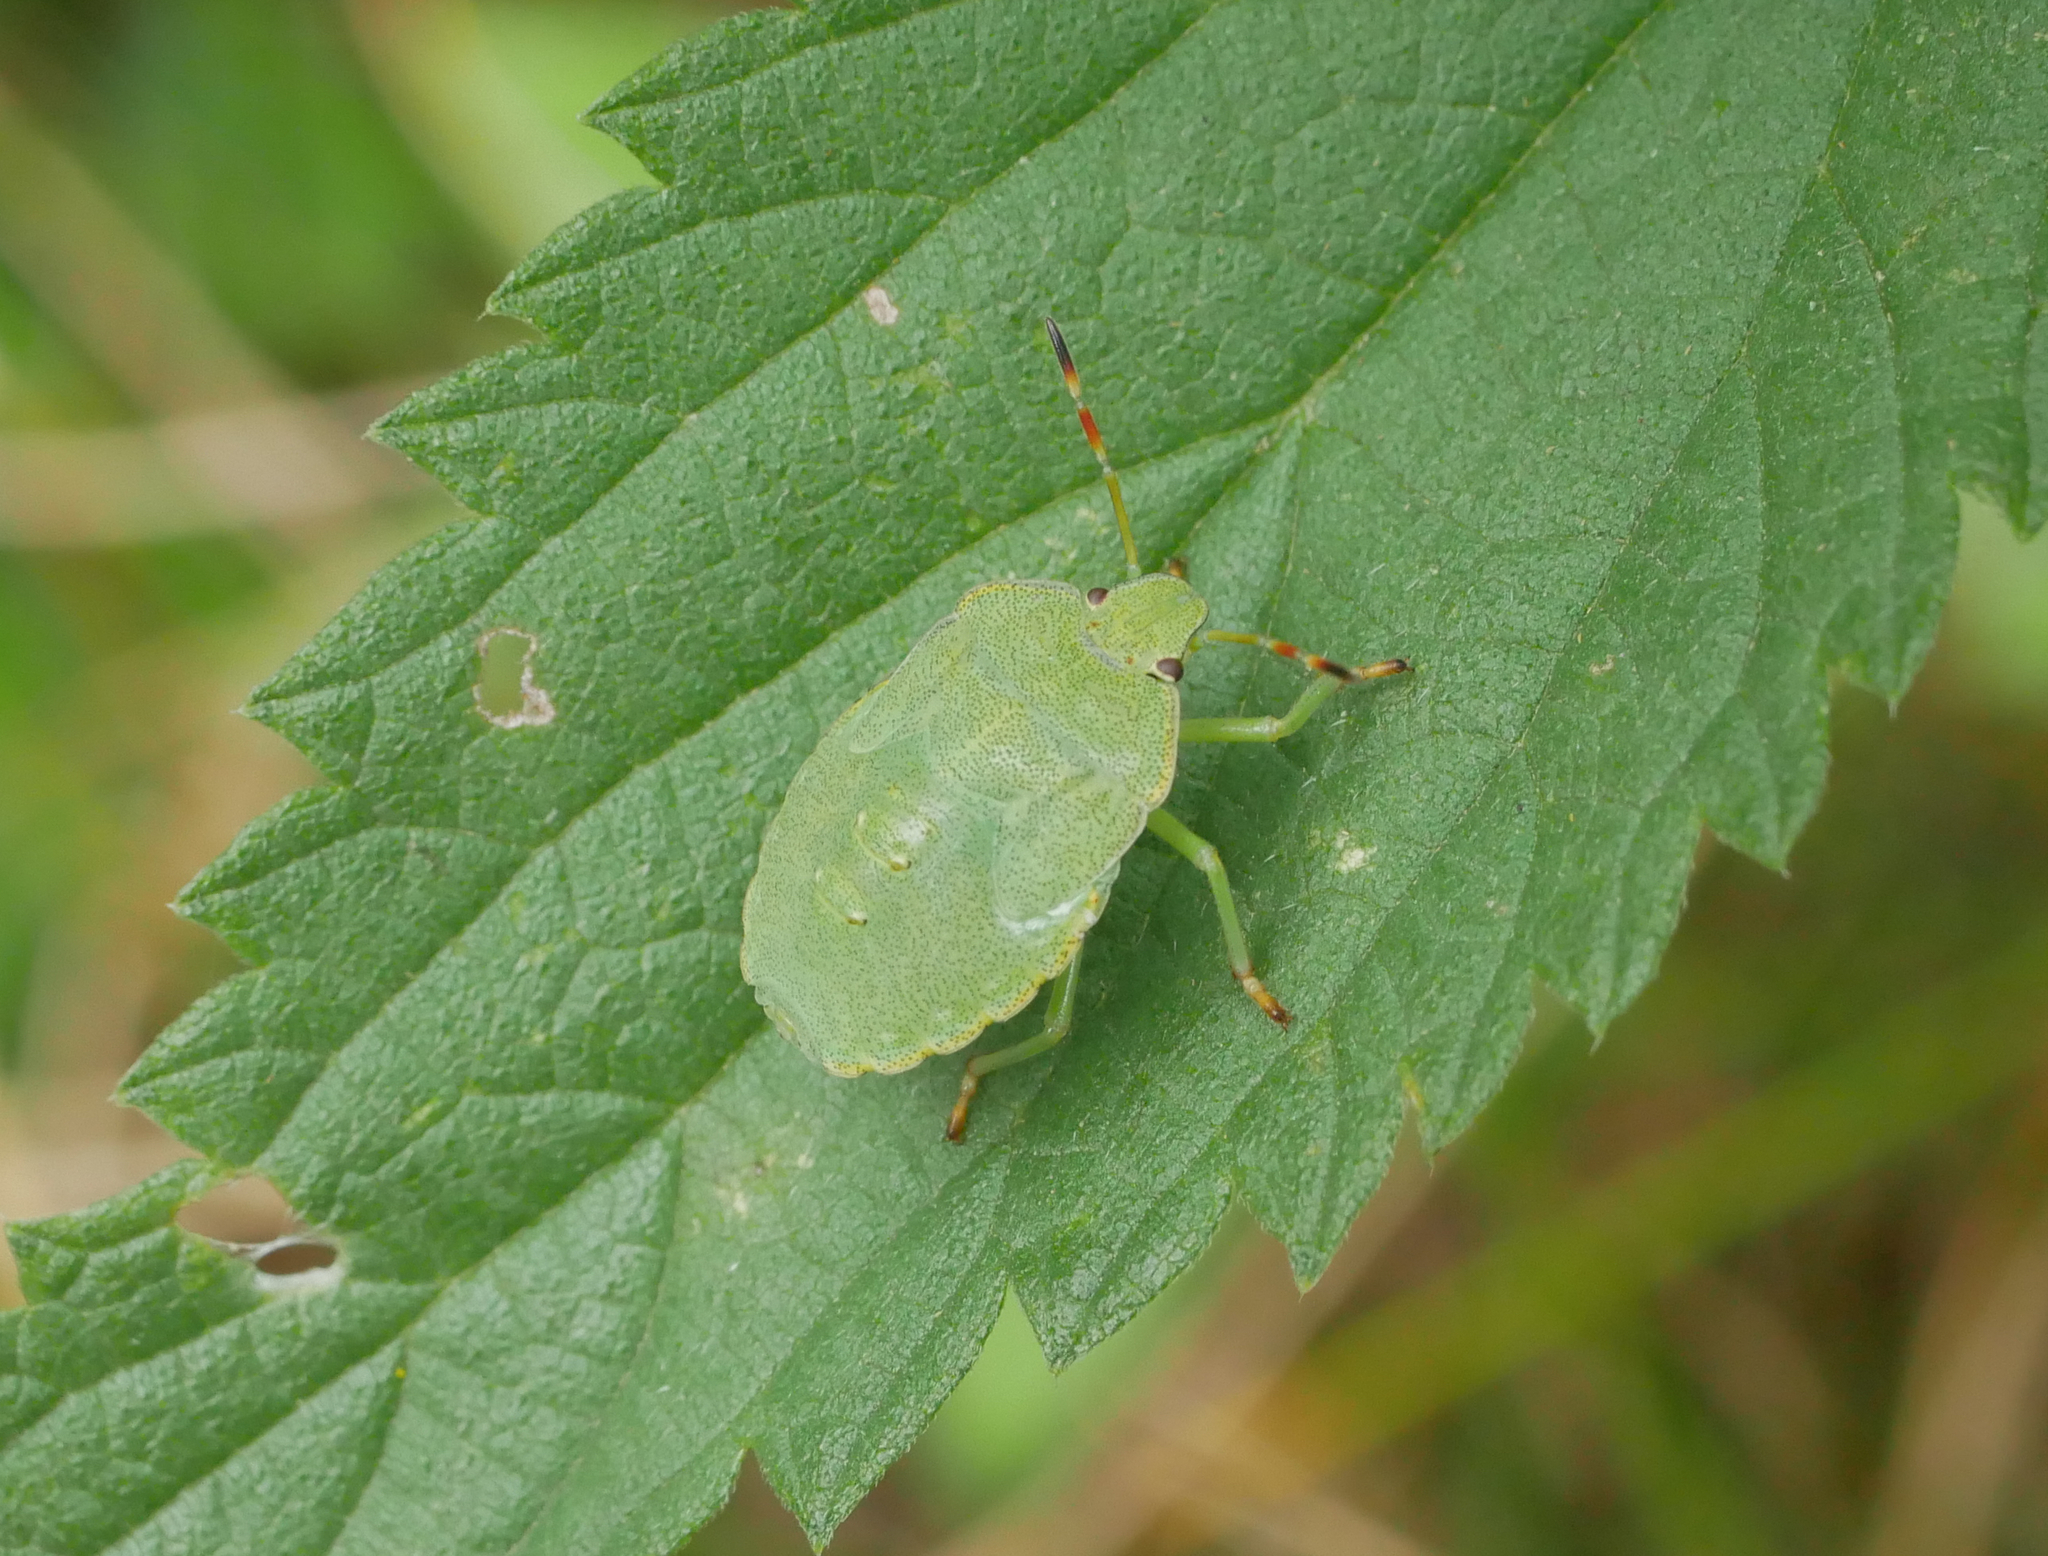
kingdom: Animalia
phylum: Arthropoda
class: Insecta
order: Hemiptera
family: Pentatomidae
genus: Palomena
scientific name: Palomena prasina
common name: Green shieldbug
